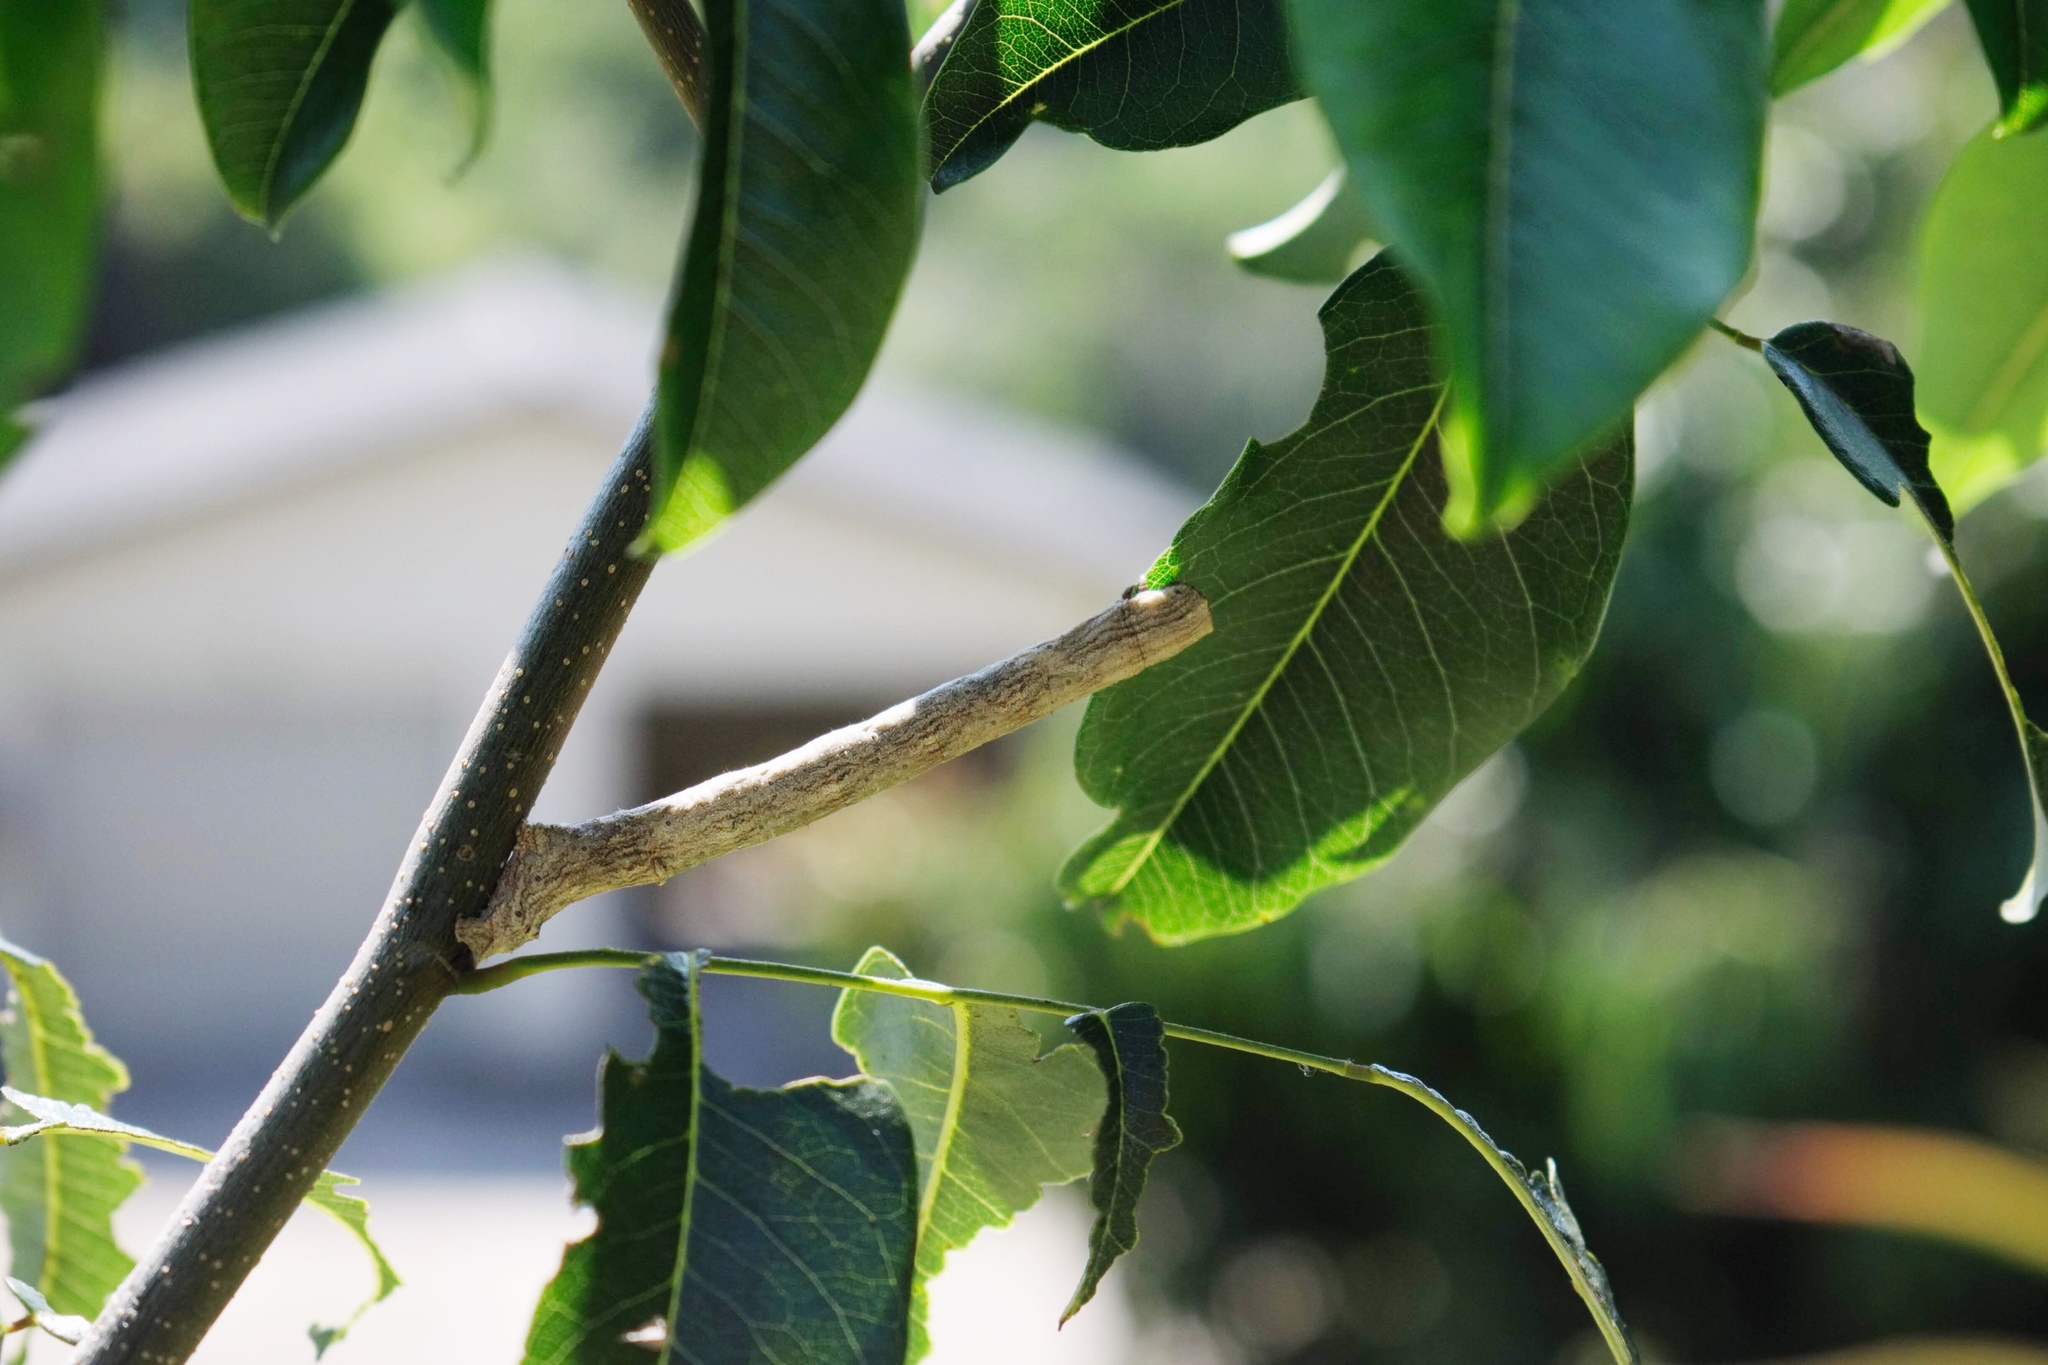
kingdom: Animalia
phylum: Arthropoda
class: Insecta
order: Lepidoptera
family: Geometridae
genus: Colocleora
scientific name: Colocleora divisaria
